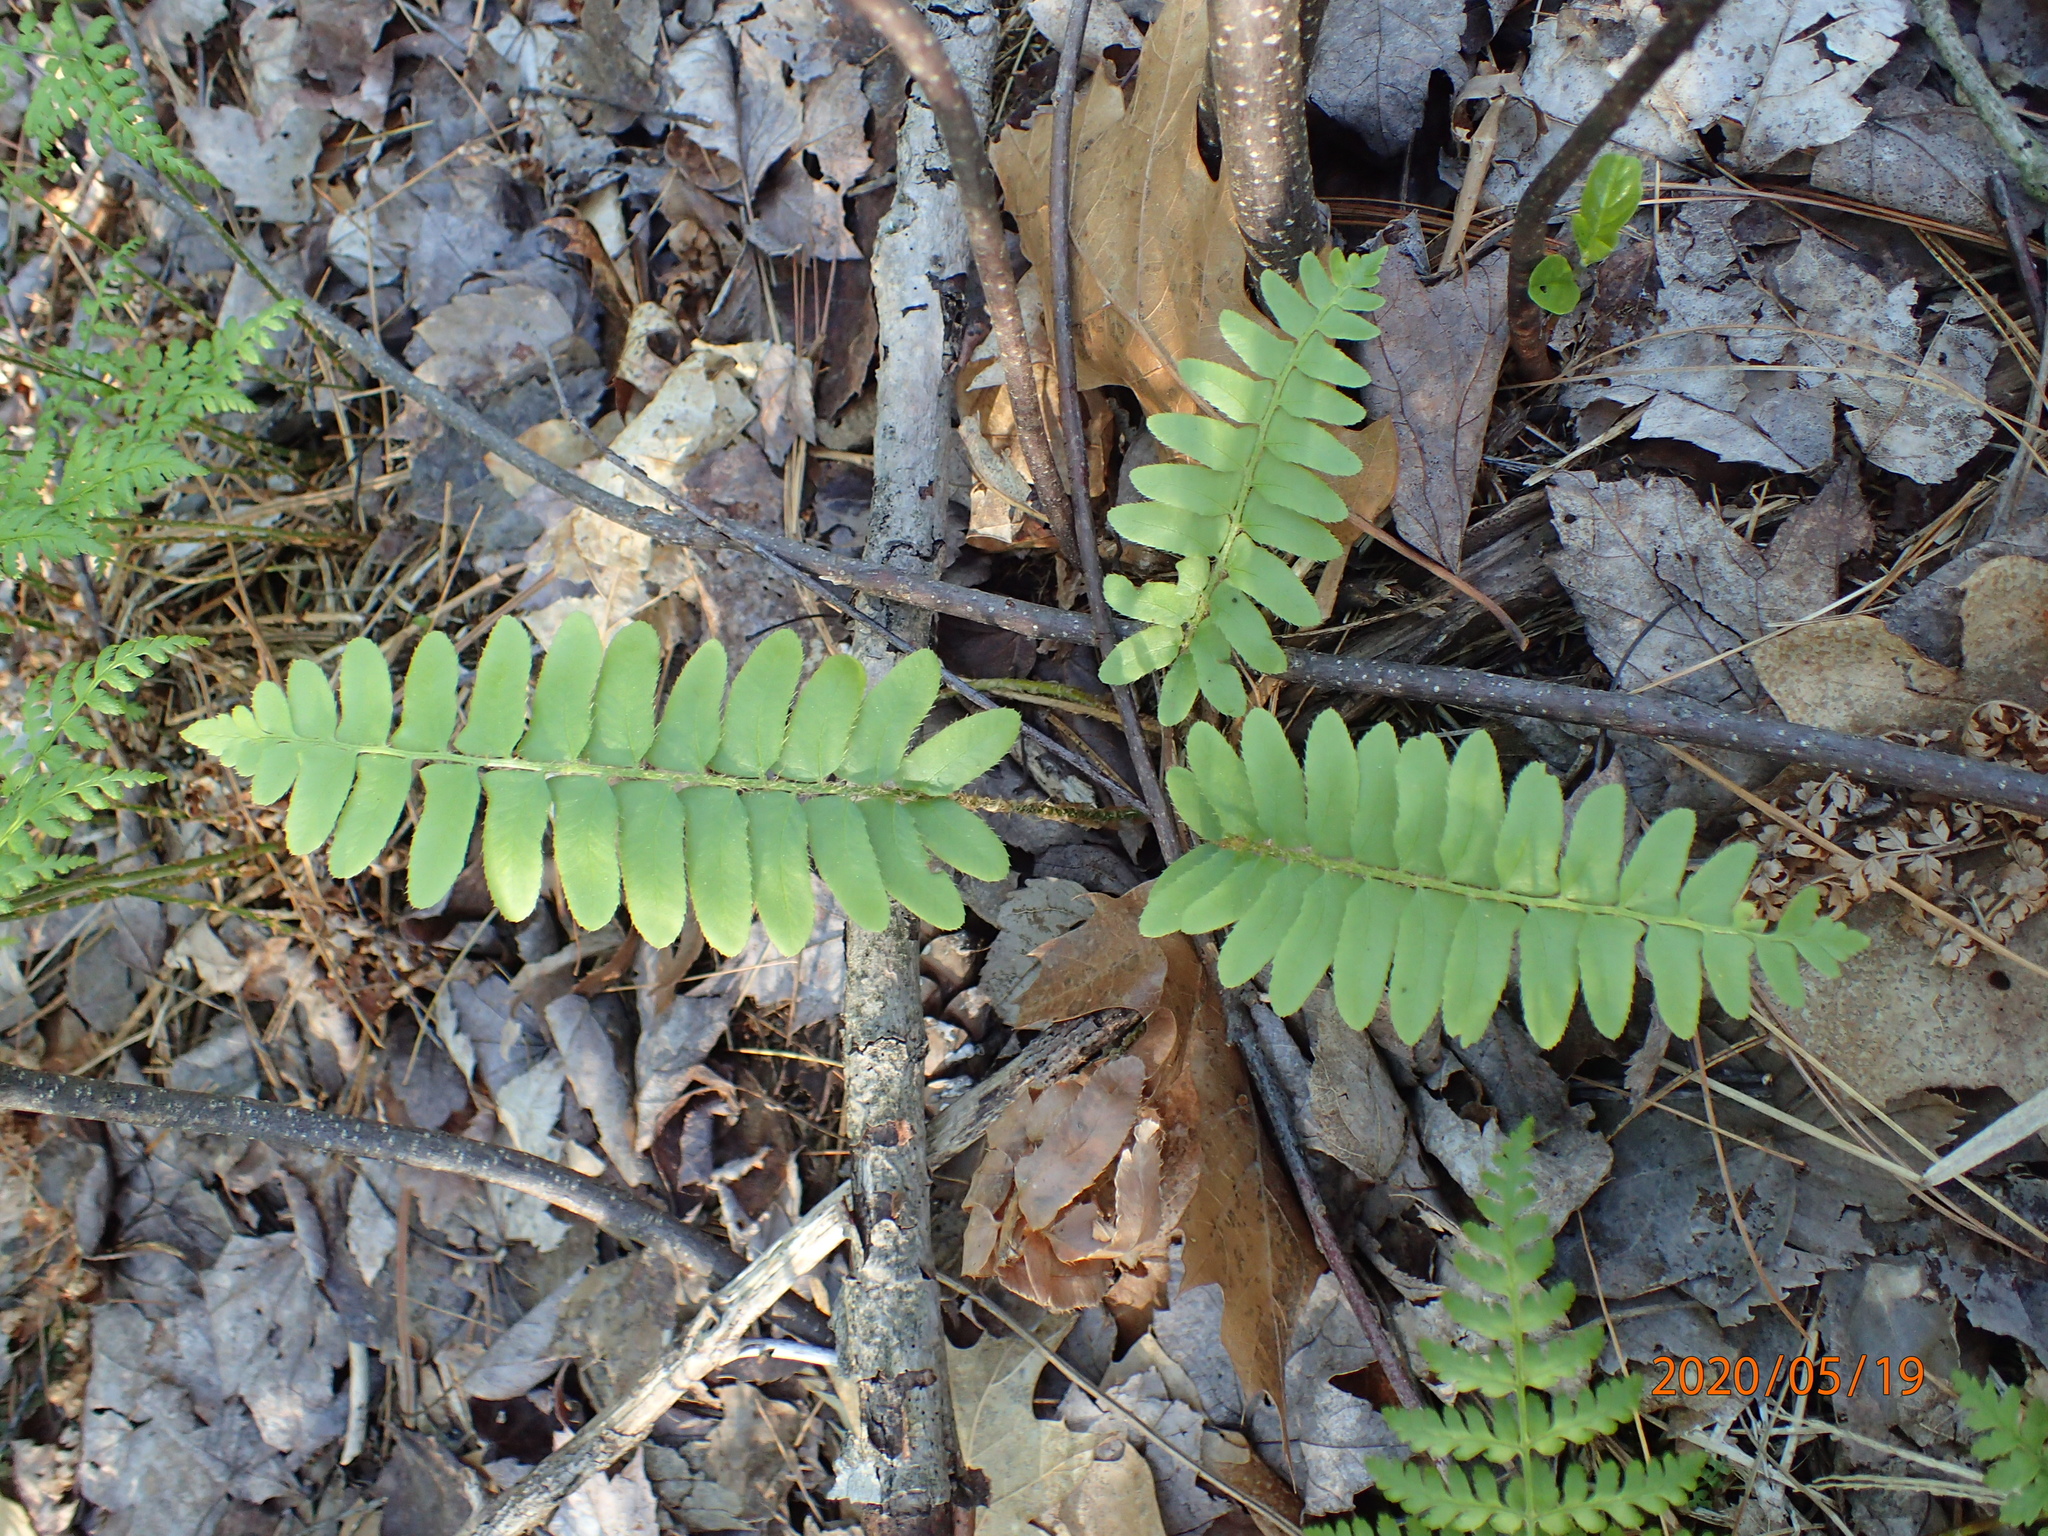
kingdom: Plantae
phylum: Tracheophyta
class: Polypodiopsida
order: Polypodiales
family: Dryopteridaceae
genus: Polystichum
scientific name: Polystichum acrostichoides
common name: Christmas fern
